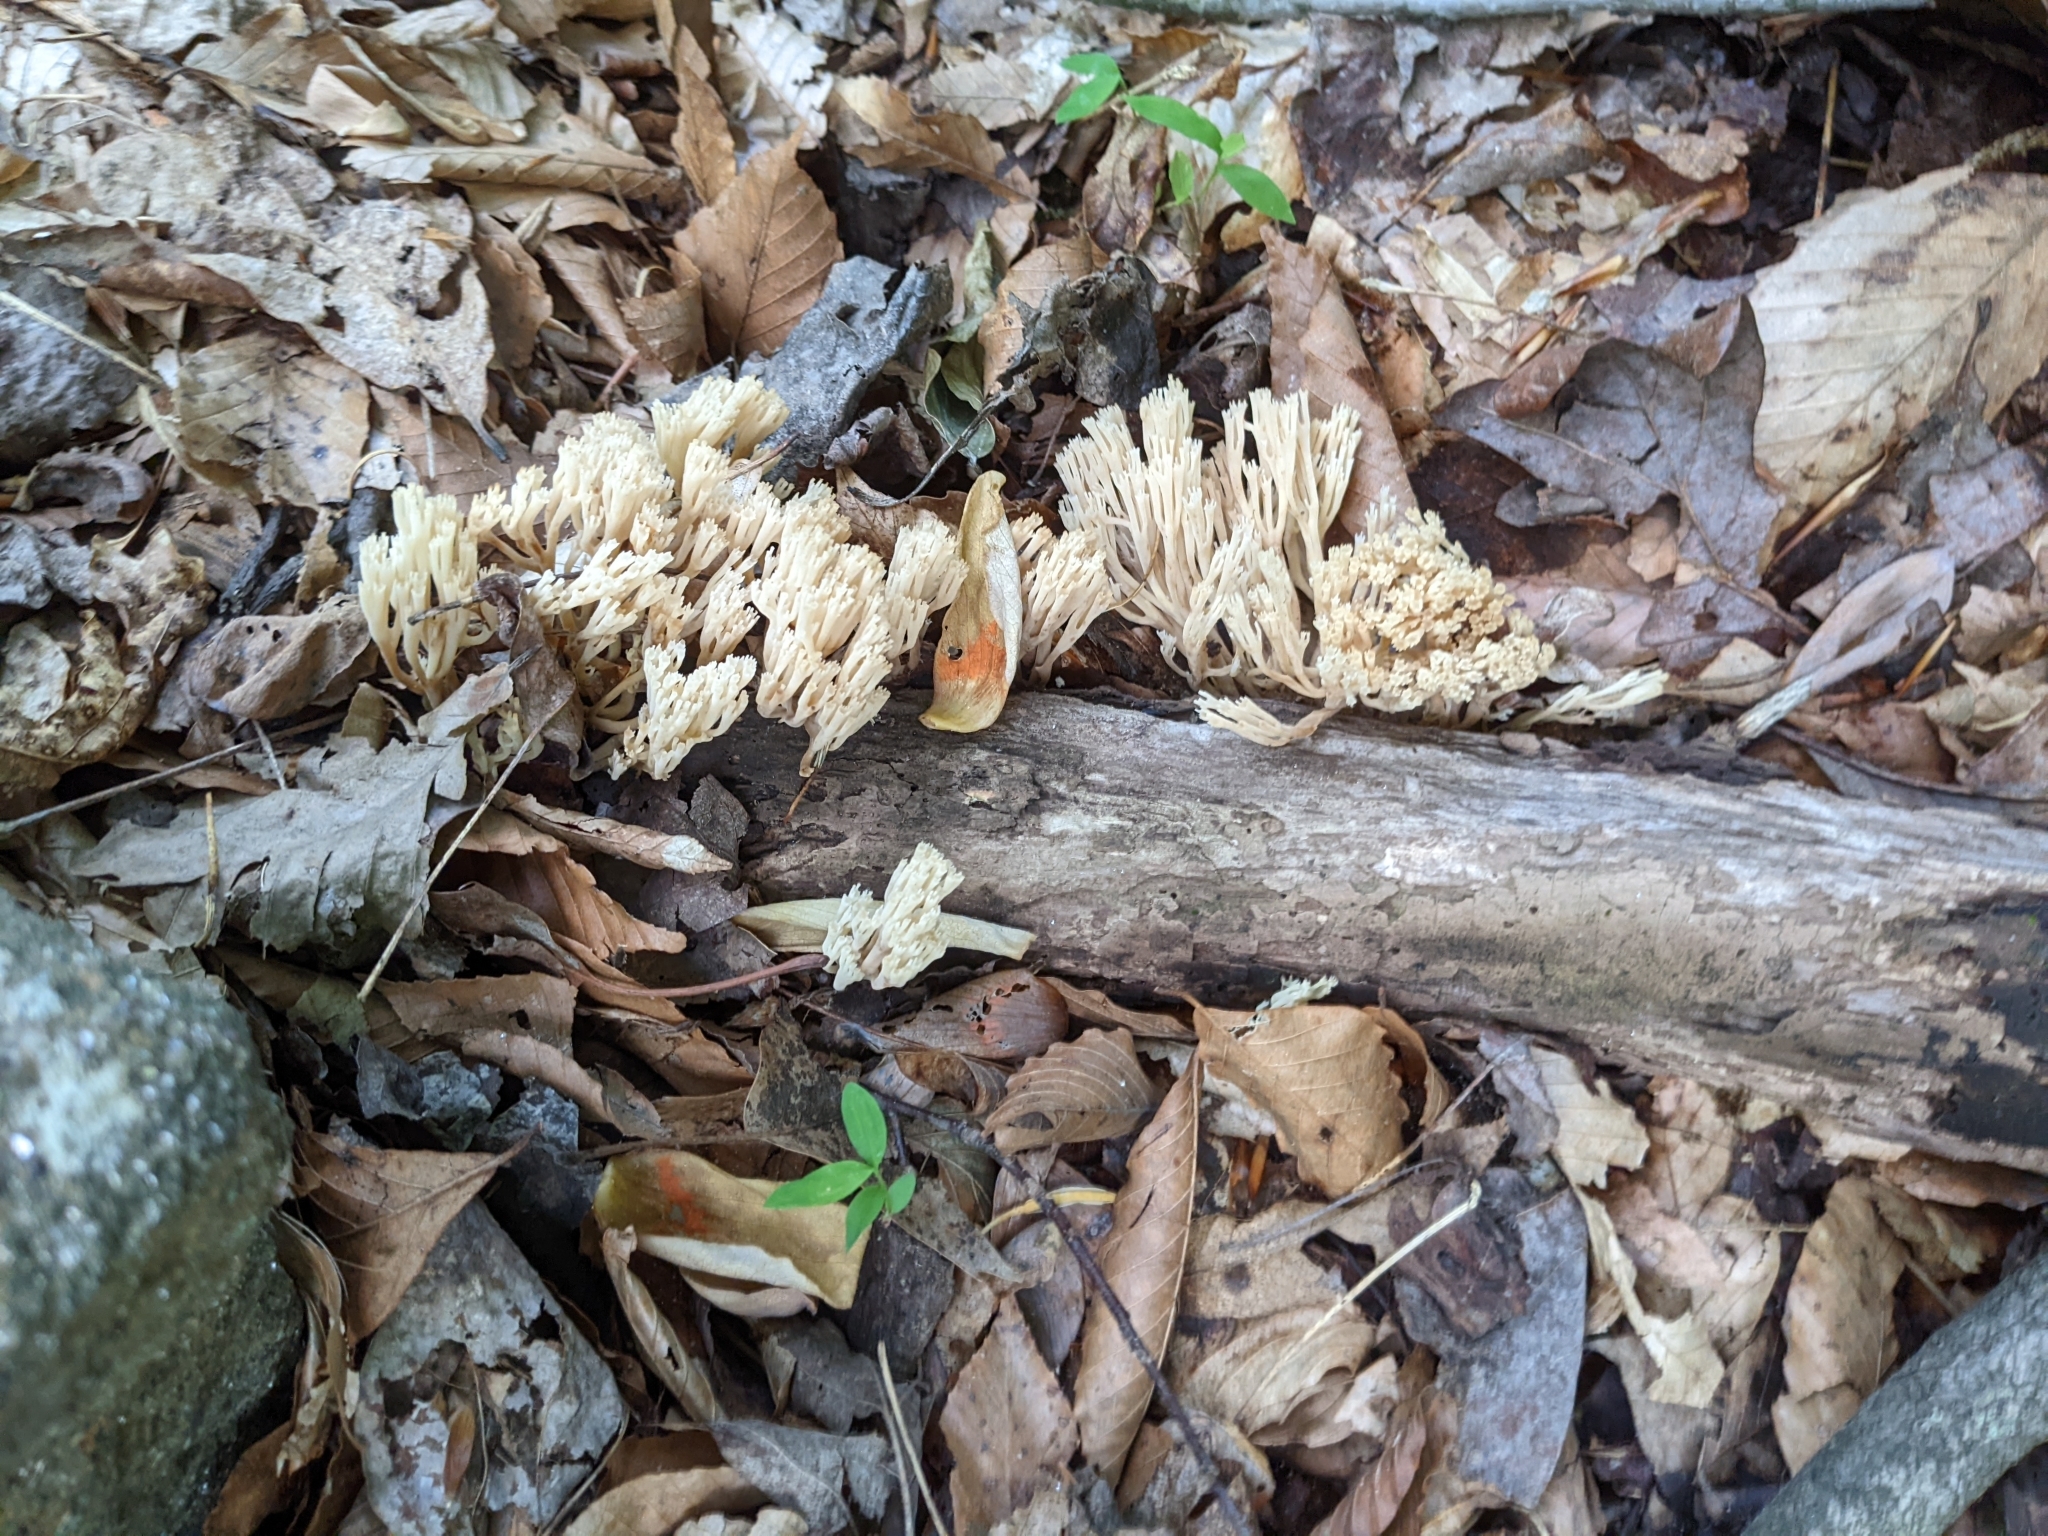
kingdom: Fungi
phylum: Basidiomycota
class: Agaricomycetes
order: Russulales
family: Auriscalpiaceae
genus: Artomyces
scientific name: Artomyces pyxidatus
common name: Crown-tipped coral fungus
